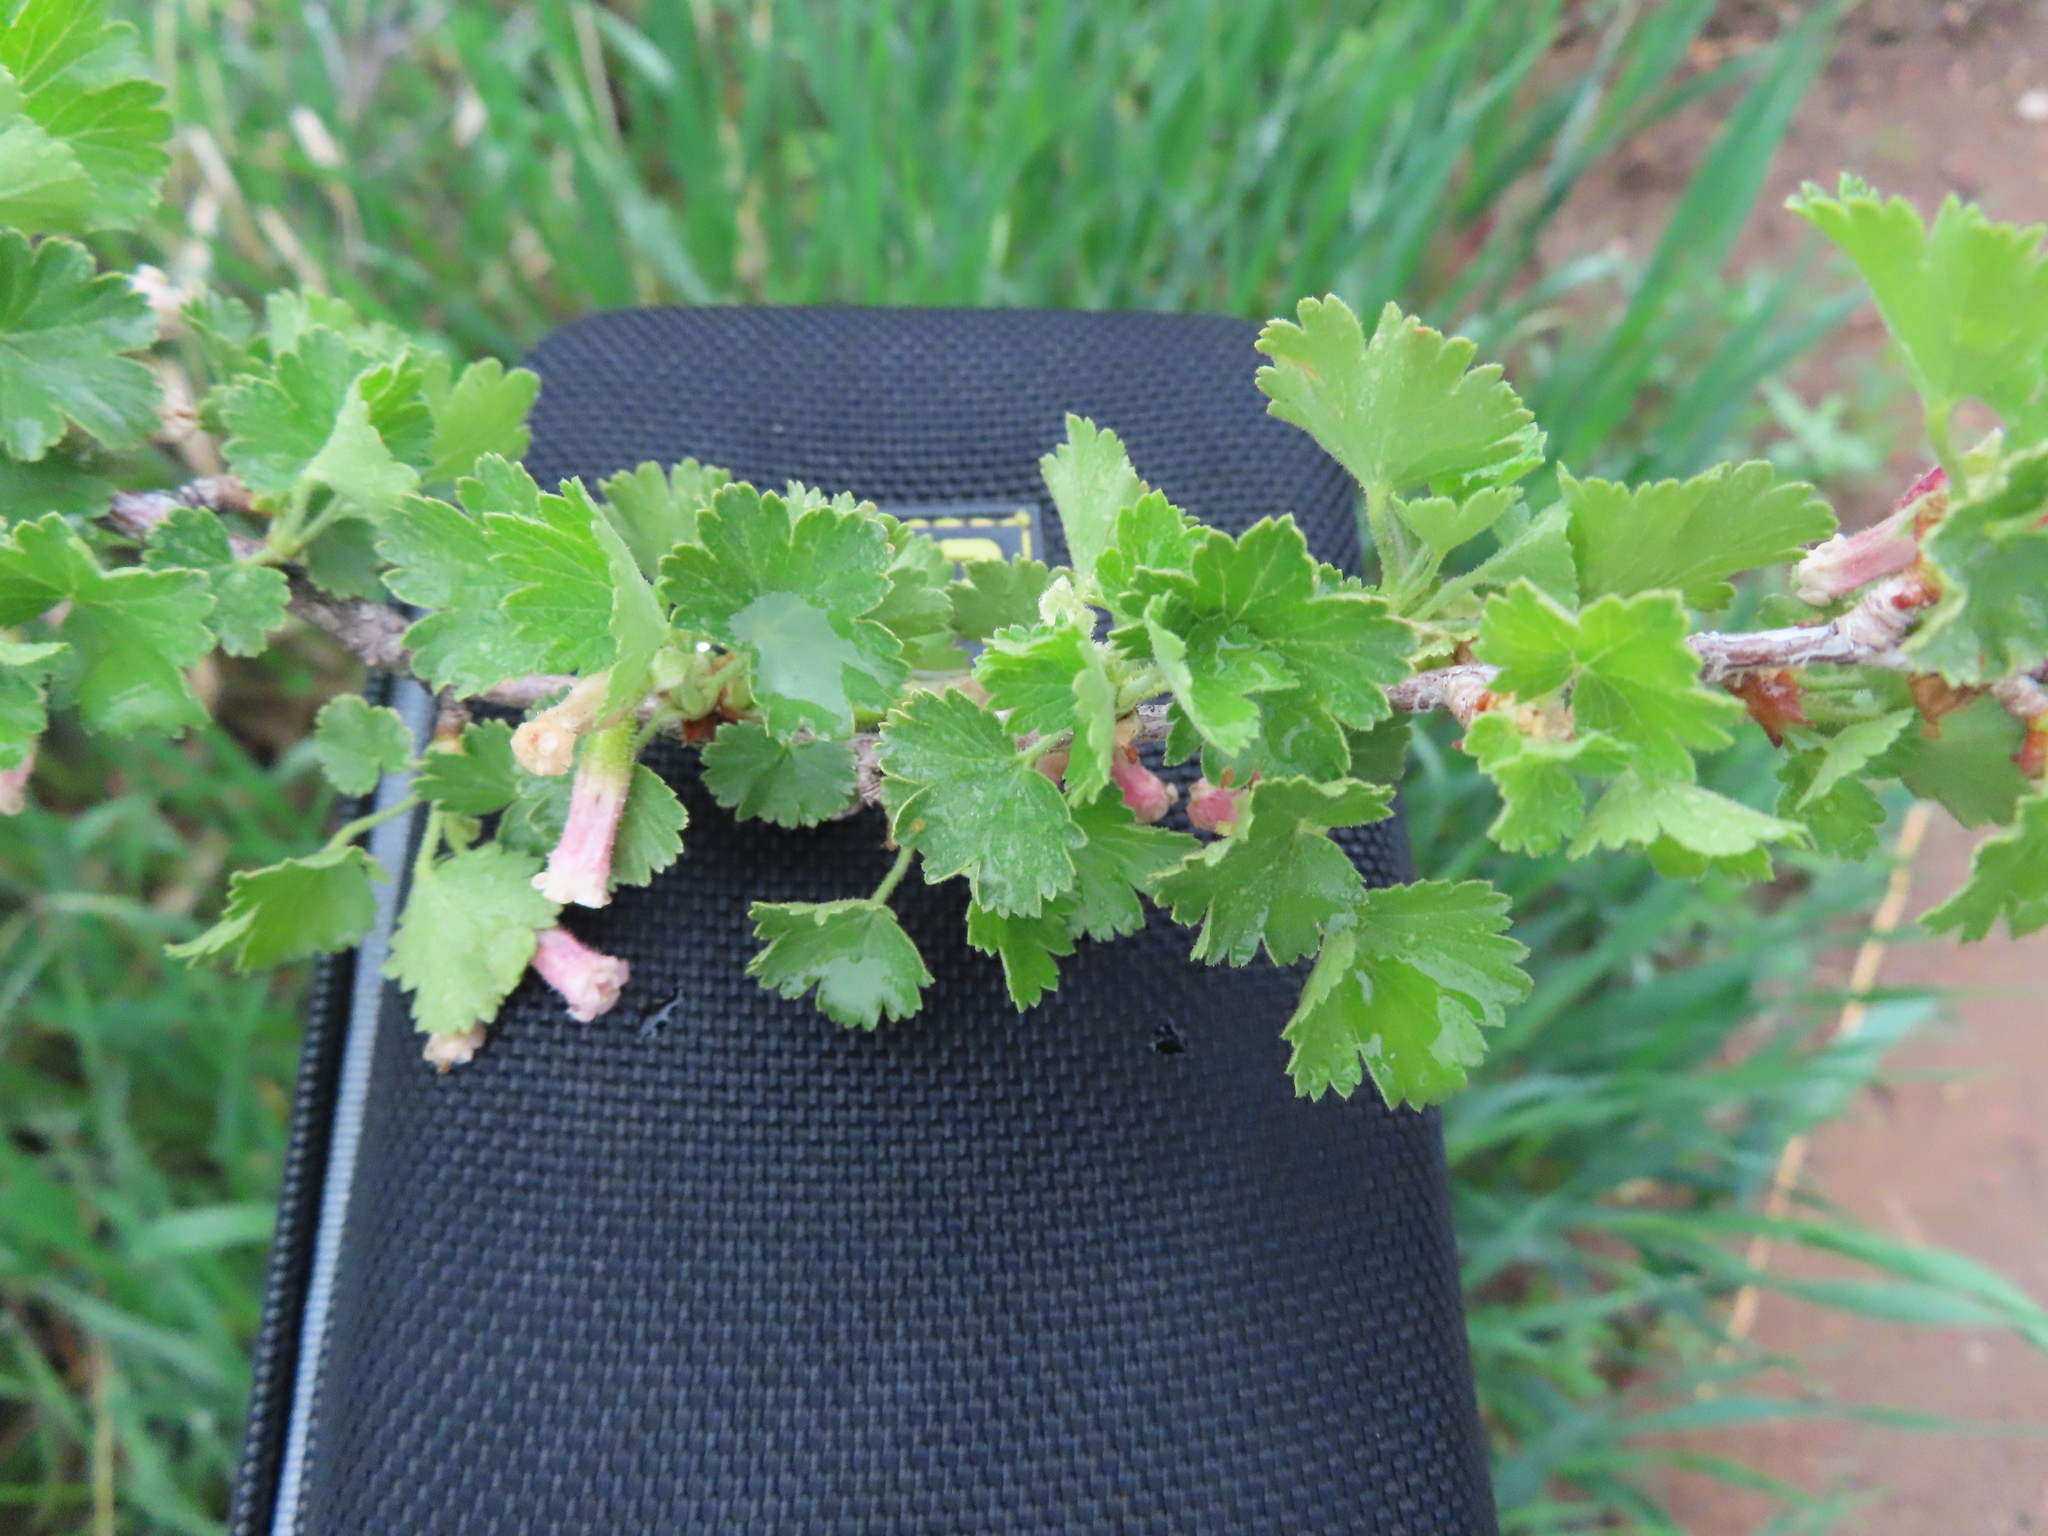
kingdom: Plantae
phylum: Tracheophyta
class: Magnoliopsida
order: Saxifragales
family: Grossulariaceae
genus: Ribes
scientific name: Ribes cereum
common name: Wax currant
